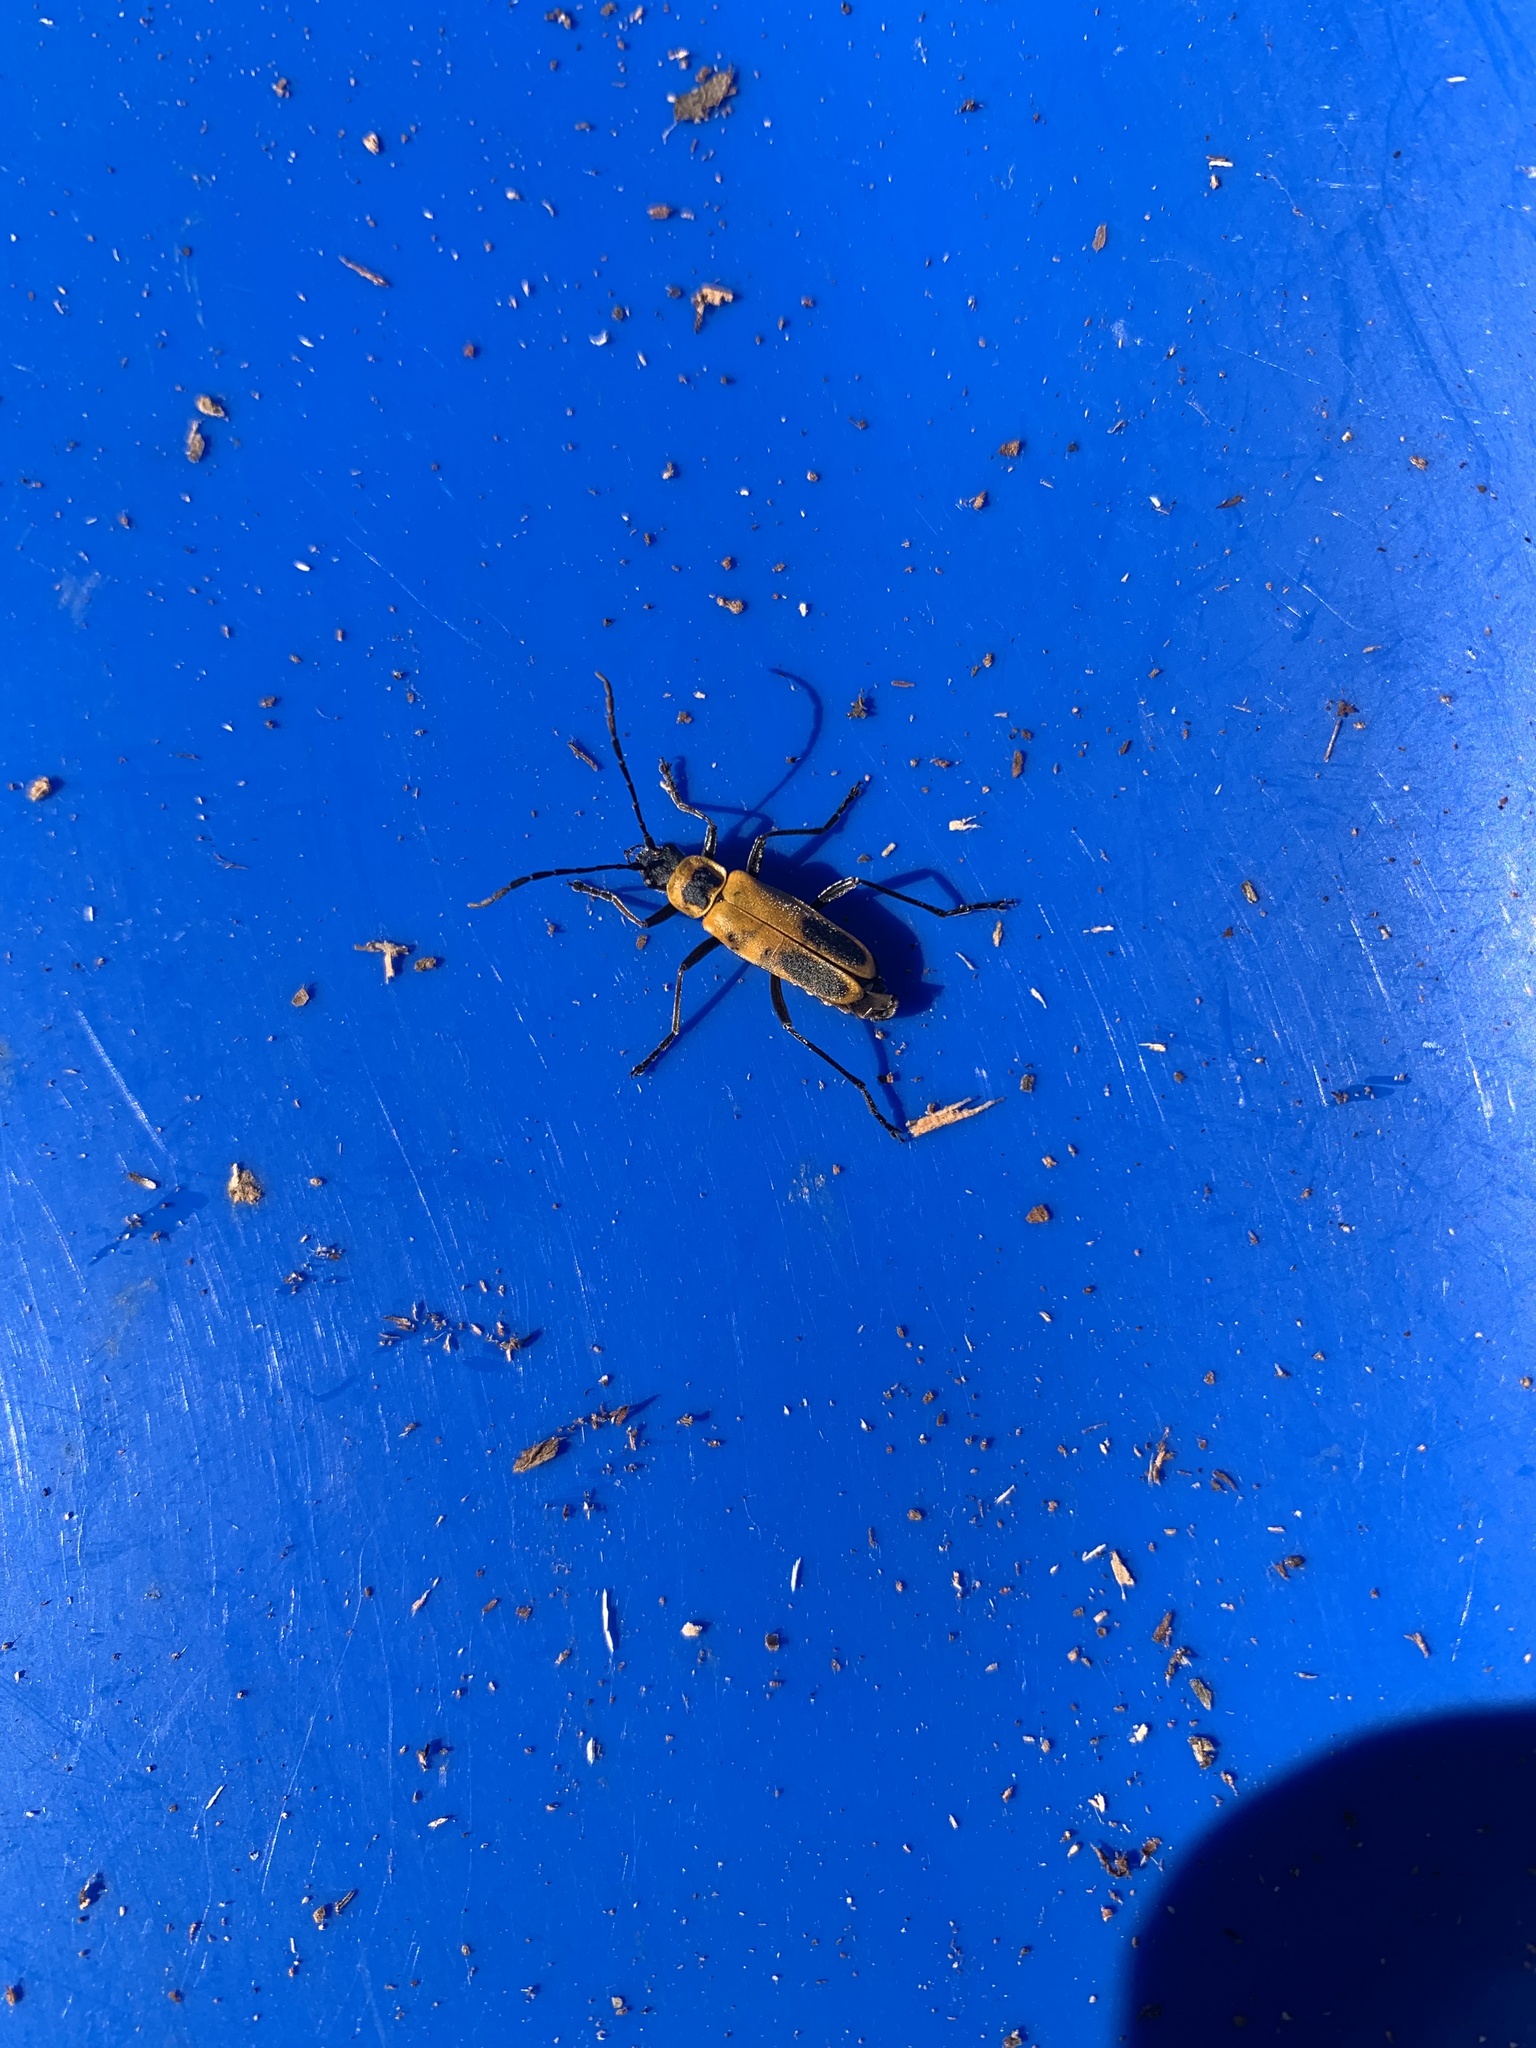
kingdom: Animalia
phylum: Arthropoda
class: Insecta
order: Coleoptera
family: Cantharidae
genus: Chauliognathus
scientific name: Chauliognathus pensylvanicus
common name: Goldenrod soldier beetle
